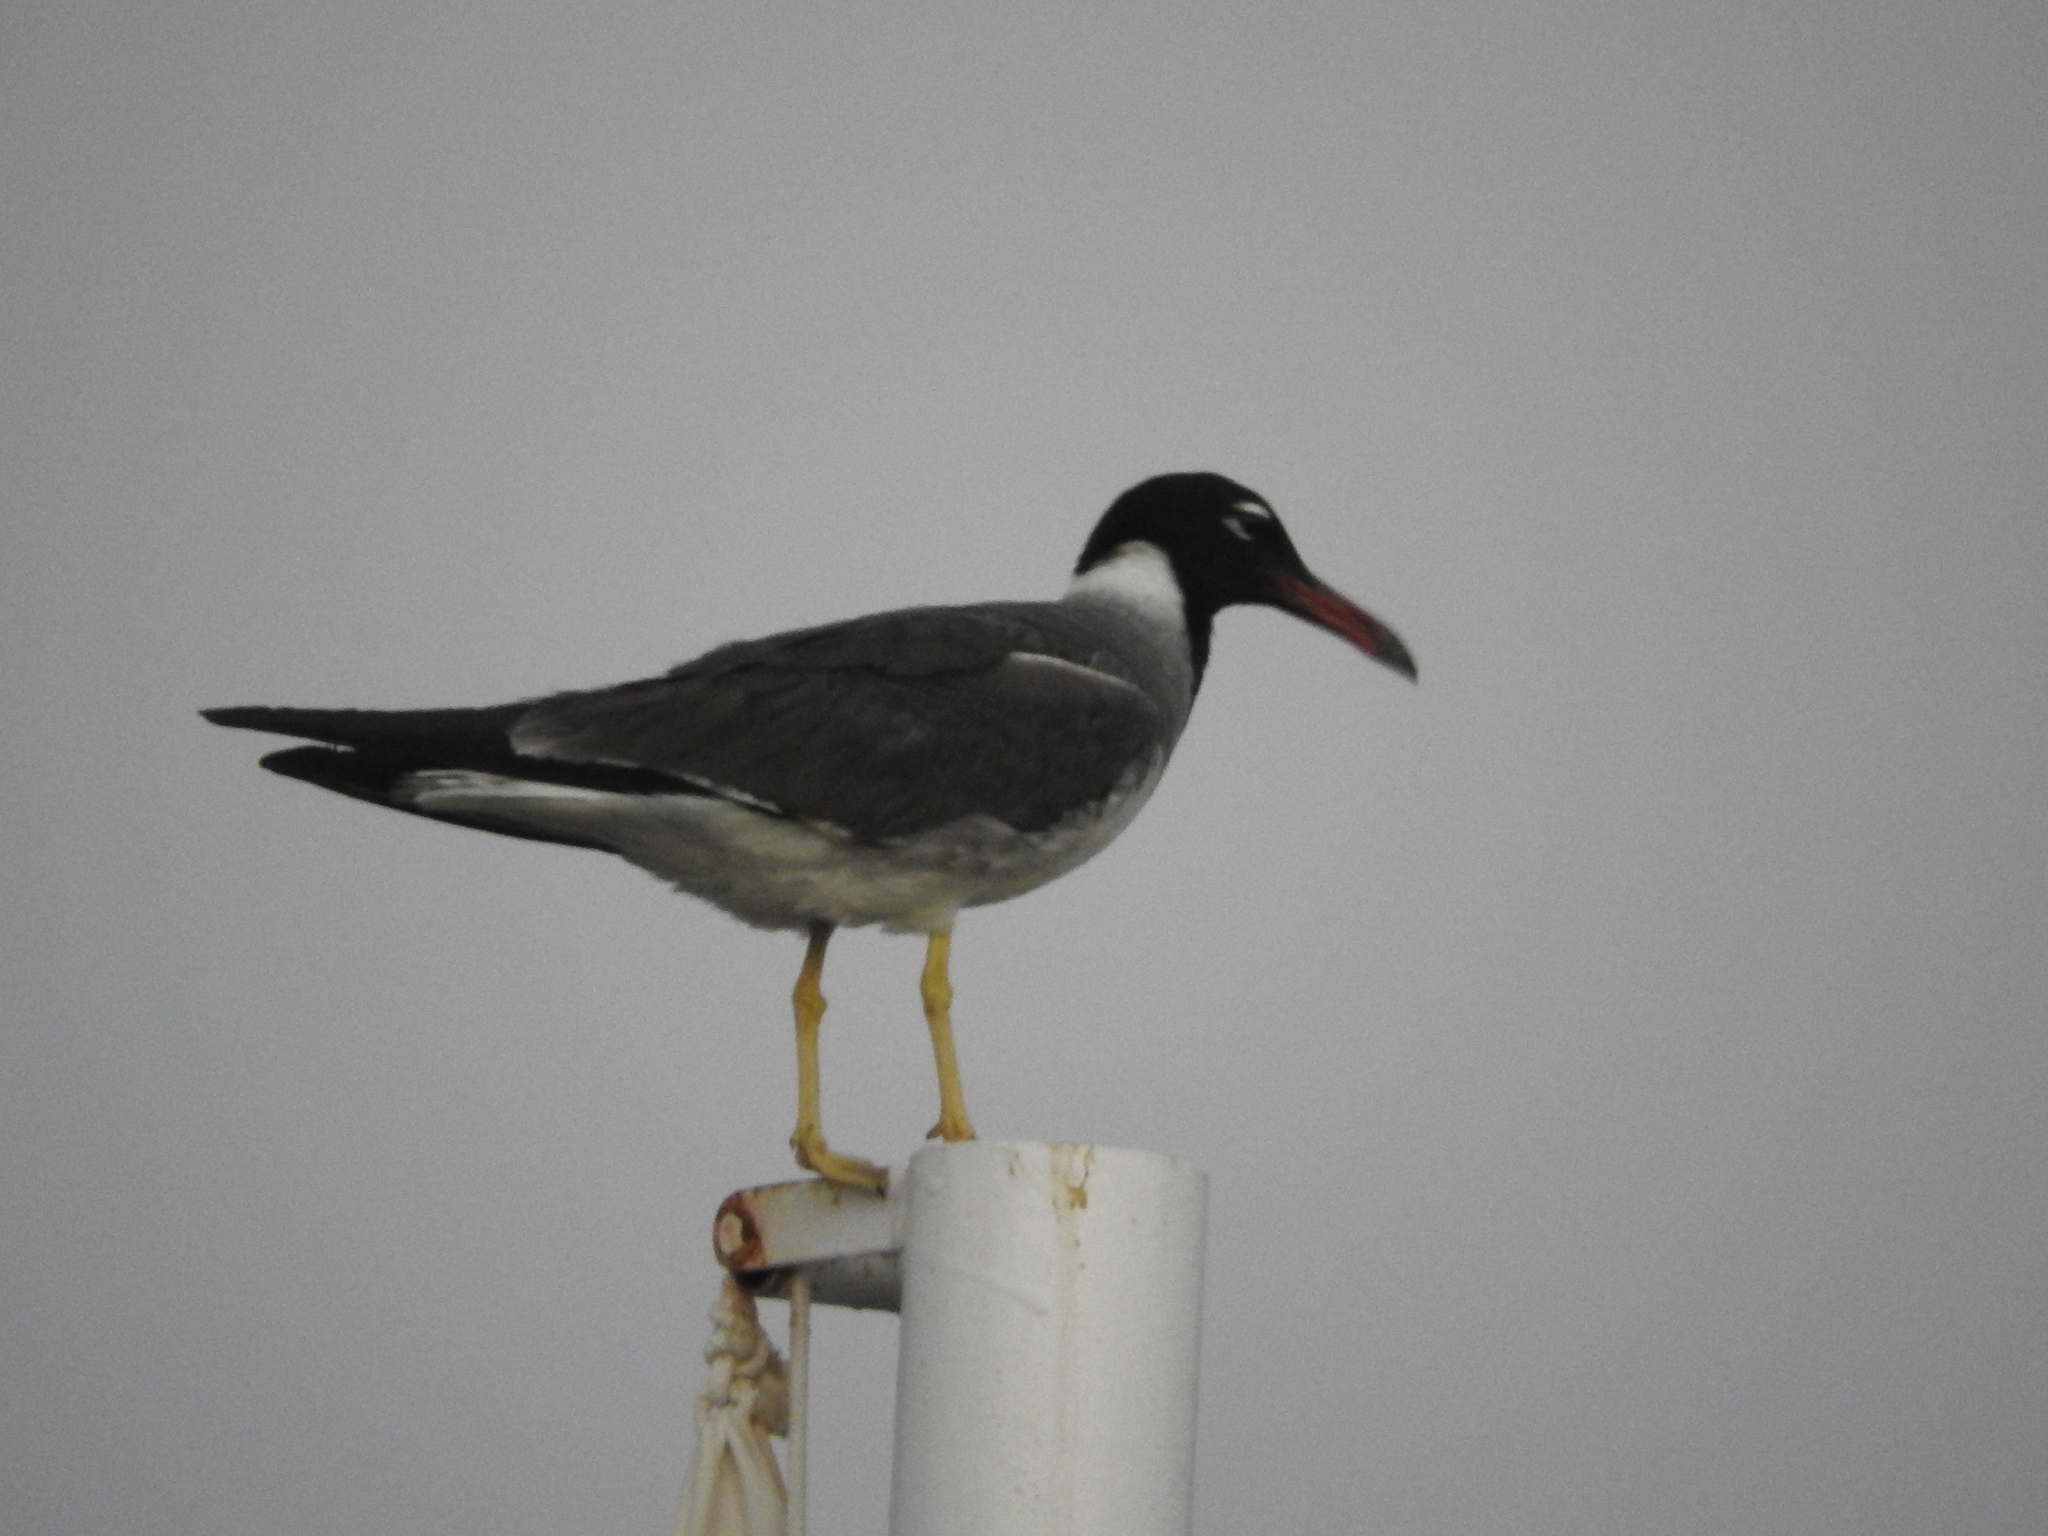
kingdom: Animalia
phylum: Chordata
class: Aves
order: Charadriiformes
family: Laridae
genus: Ichthyaetus
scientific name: Ichthyaetus leucophthalmus
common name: White-eyed gull
